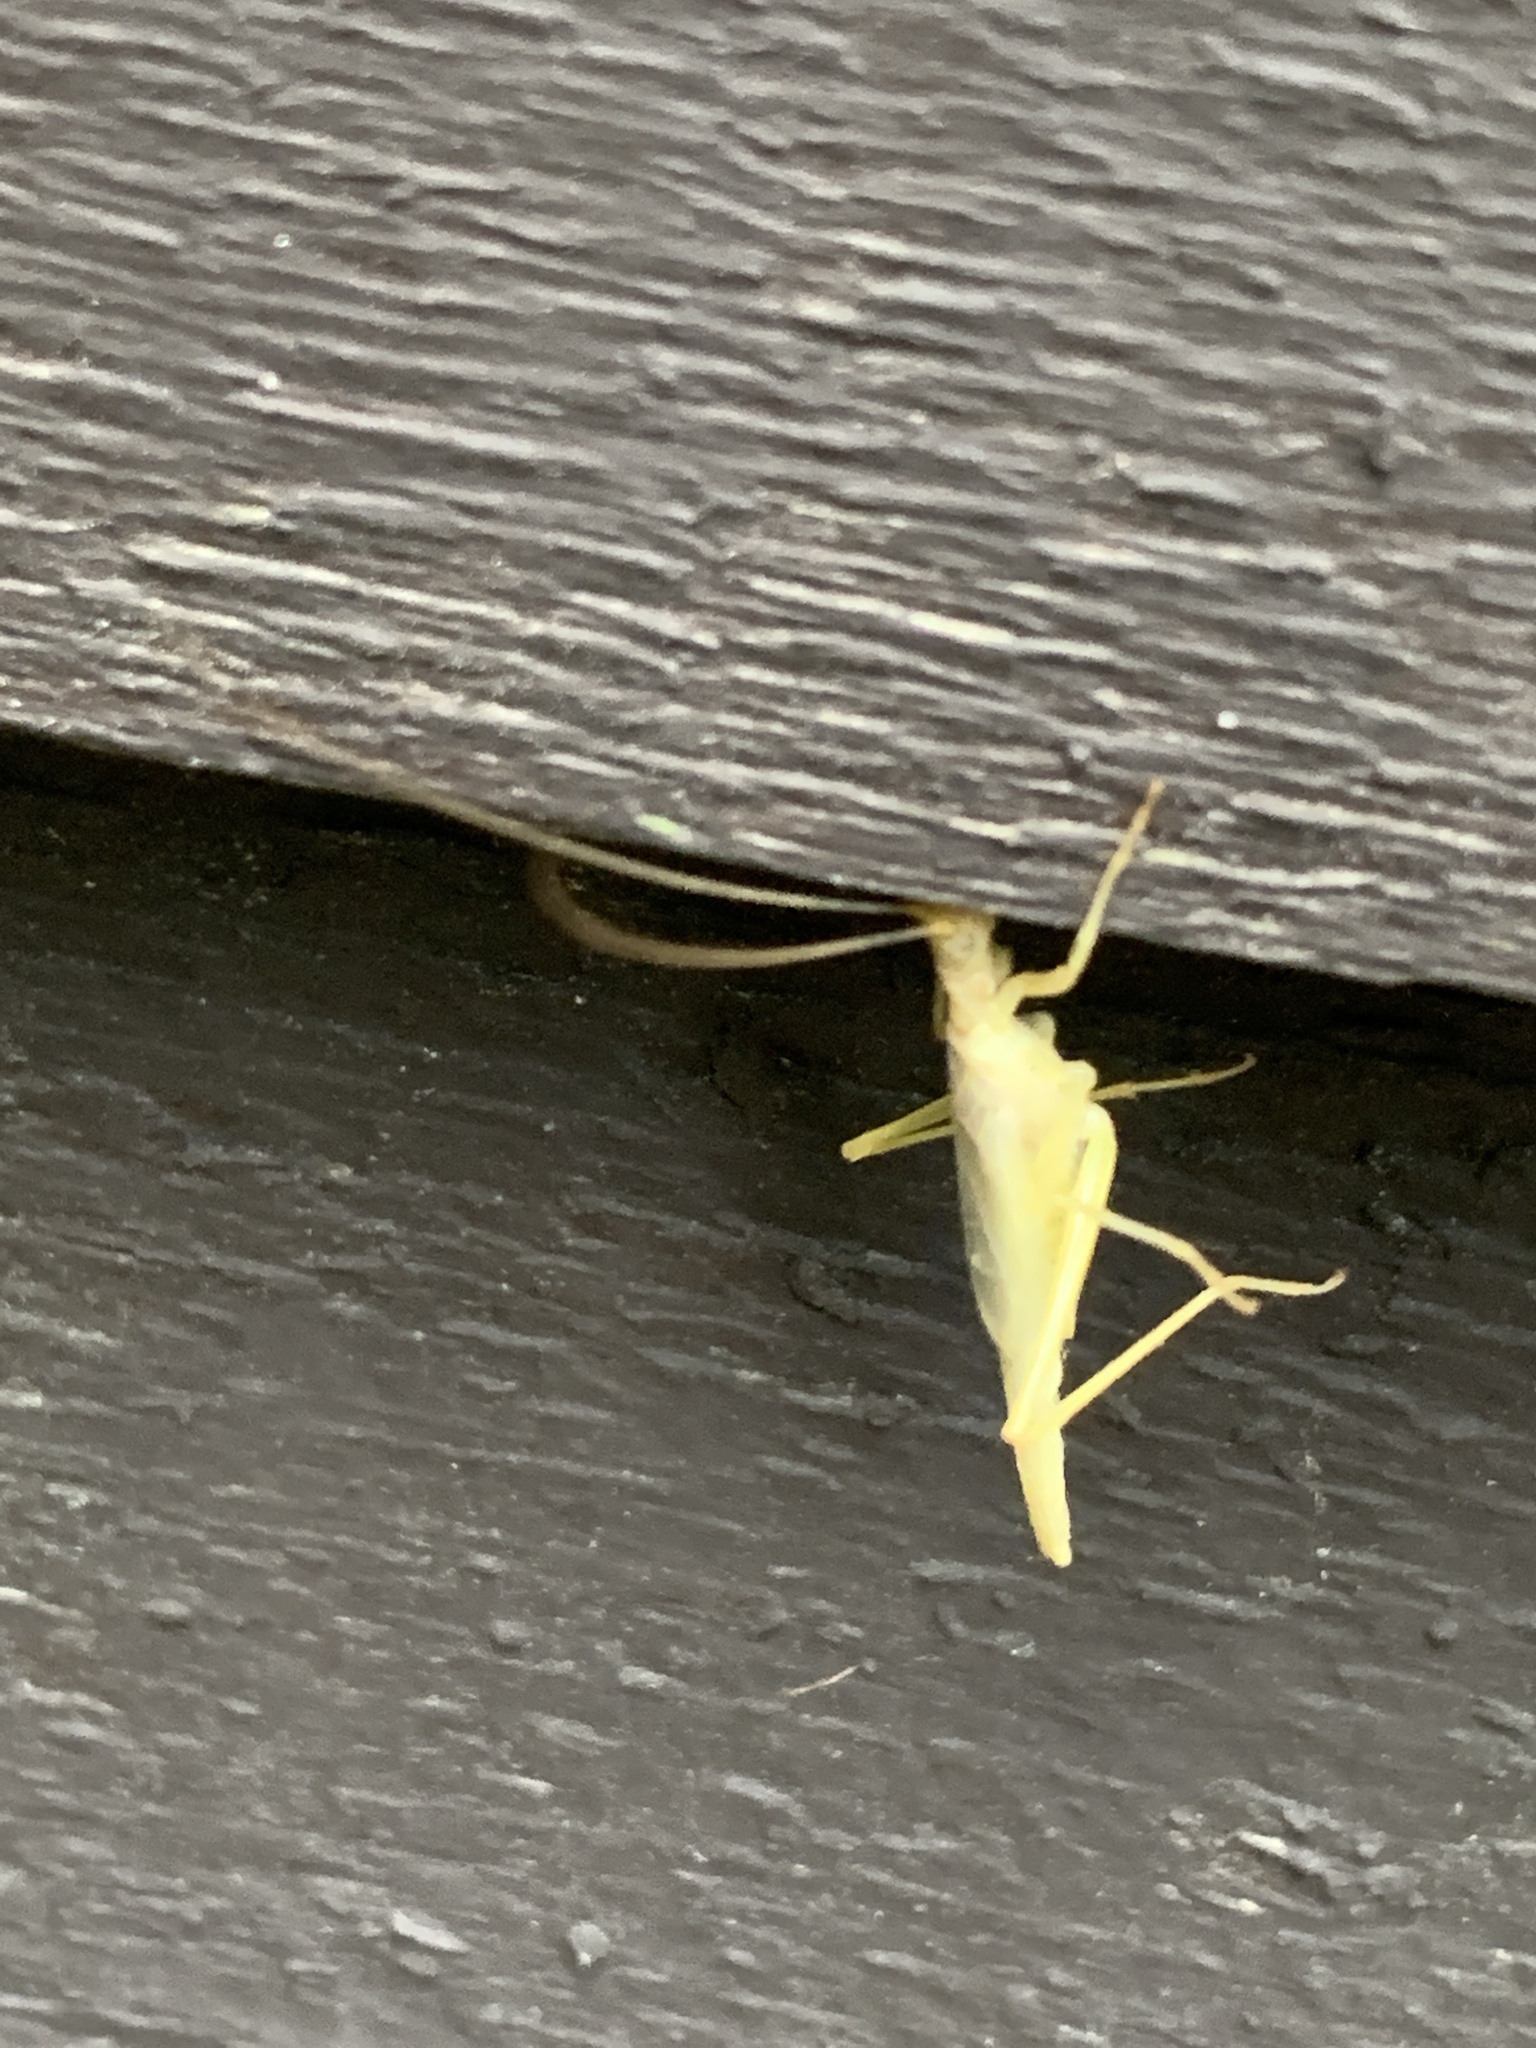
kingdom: Animalia
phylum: Arthropoda
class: Insecta
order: Orthoptera
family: Gryllidae
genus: Neoxabea
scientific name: Neoxabea bipunctata
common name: Two-spotted tree cricket
